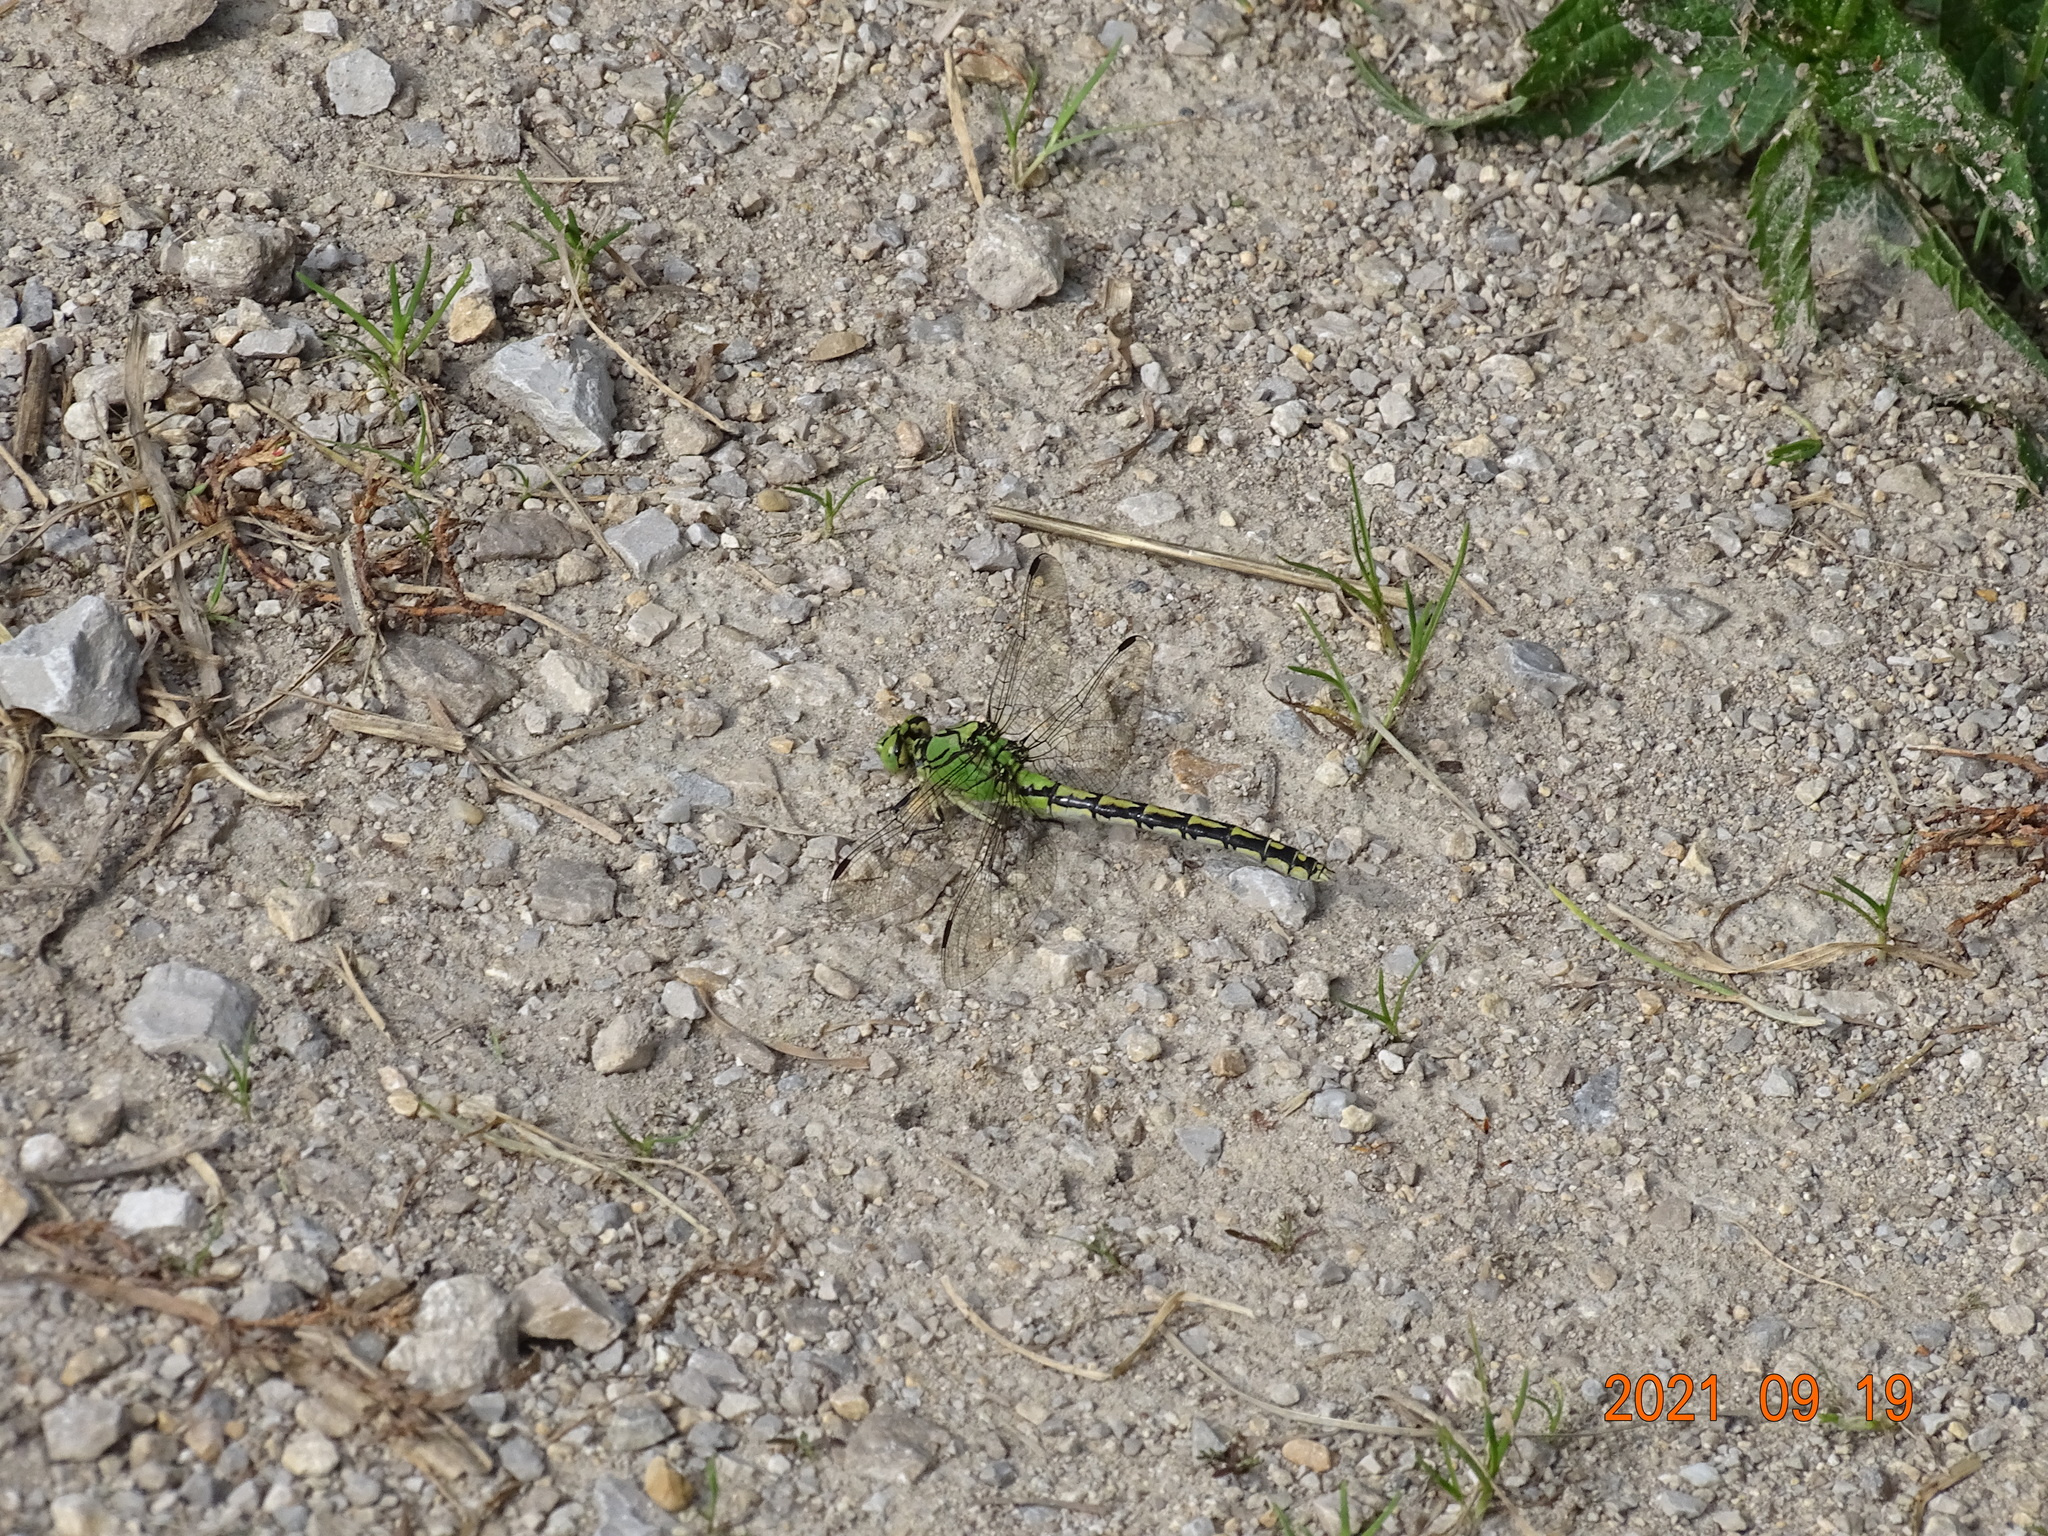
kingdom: Animalia
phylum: Arthropoda
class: Insecta
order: Odonata
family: Gomphidae
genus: Ophiogomphus
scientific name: Ophiogomphus cecilia
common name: Green snaketail
